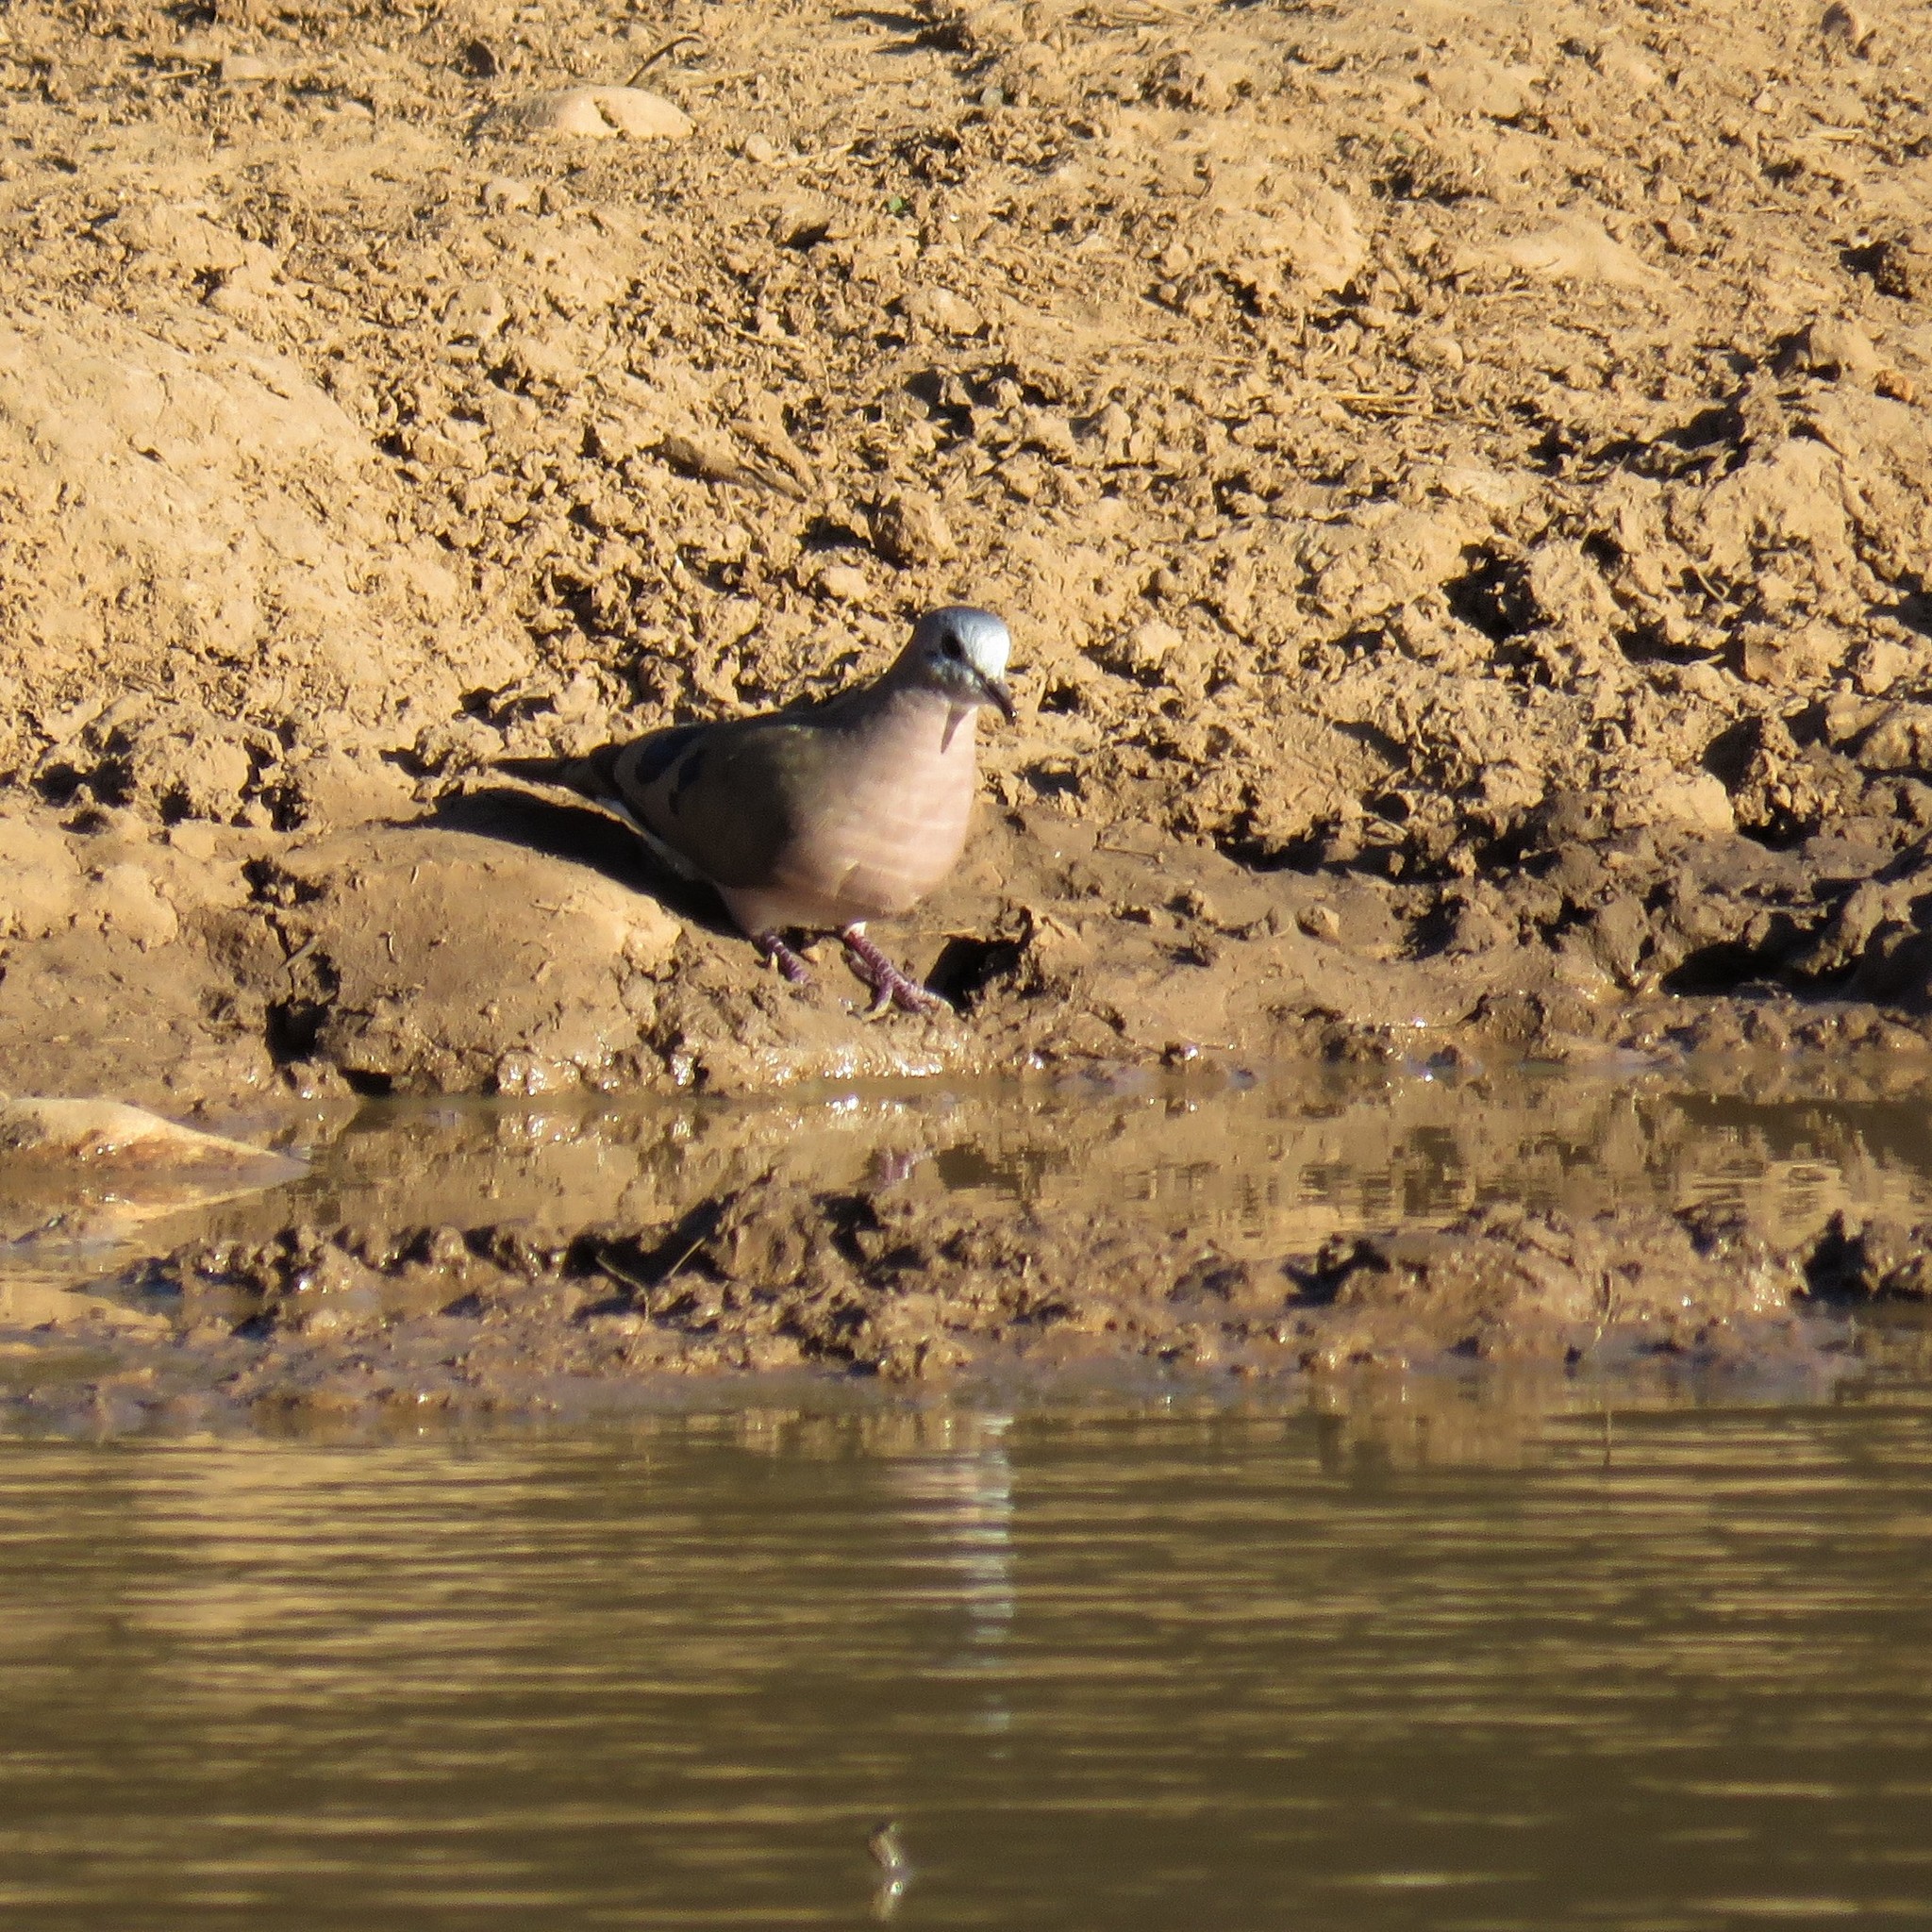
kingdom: Animalia
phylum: Chordata
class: Aves
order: Columbiformes
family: Columbidae
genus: Turtur
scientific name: Turtur chalcospilos
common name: Emerald-spotted wood dove
